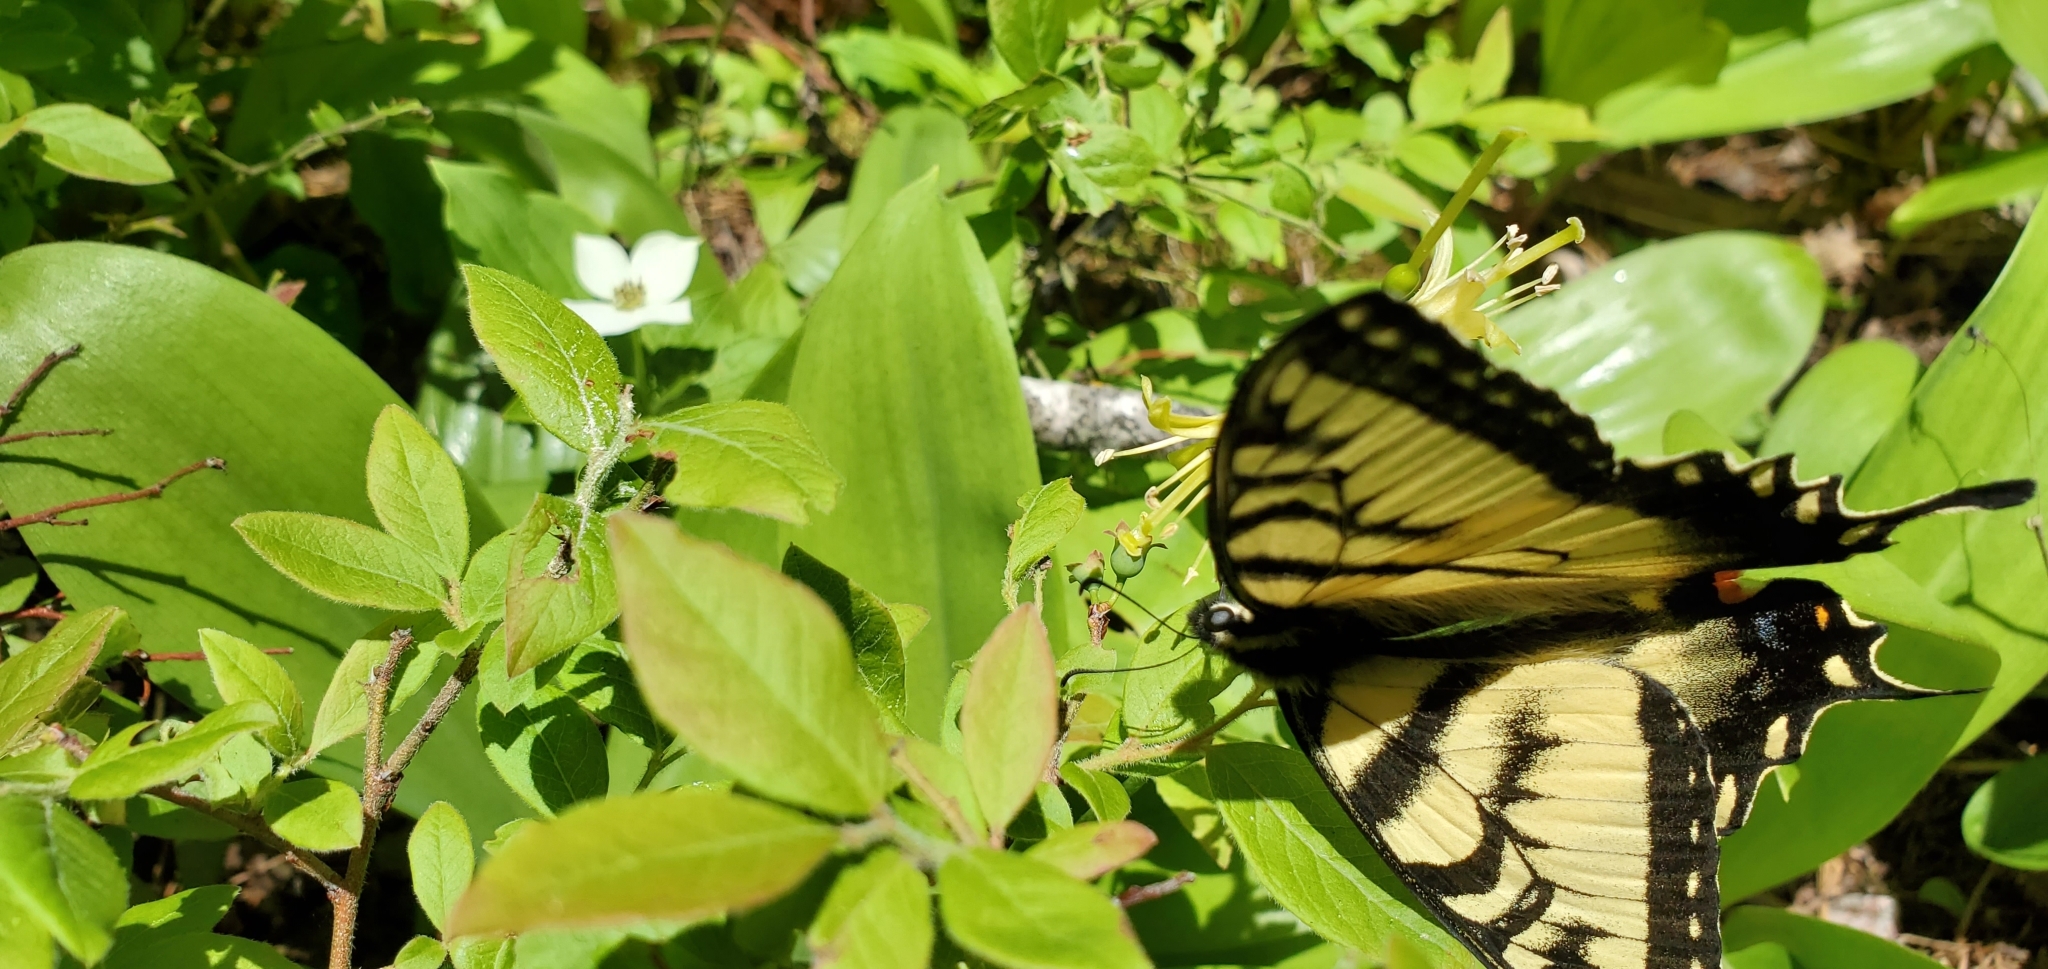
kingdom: Animalia
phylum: Arthropoda
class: Insecta
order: Lepidoptera
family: Papilionidae
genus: Papilio
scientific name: Papilio canadensis
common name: Canadian tiger swallowtail
